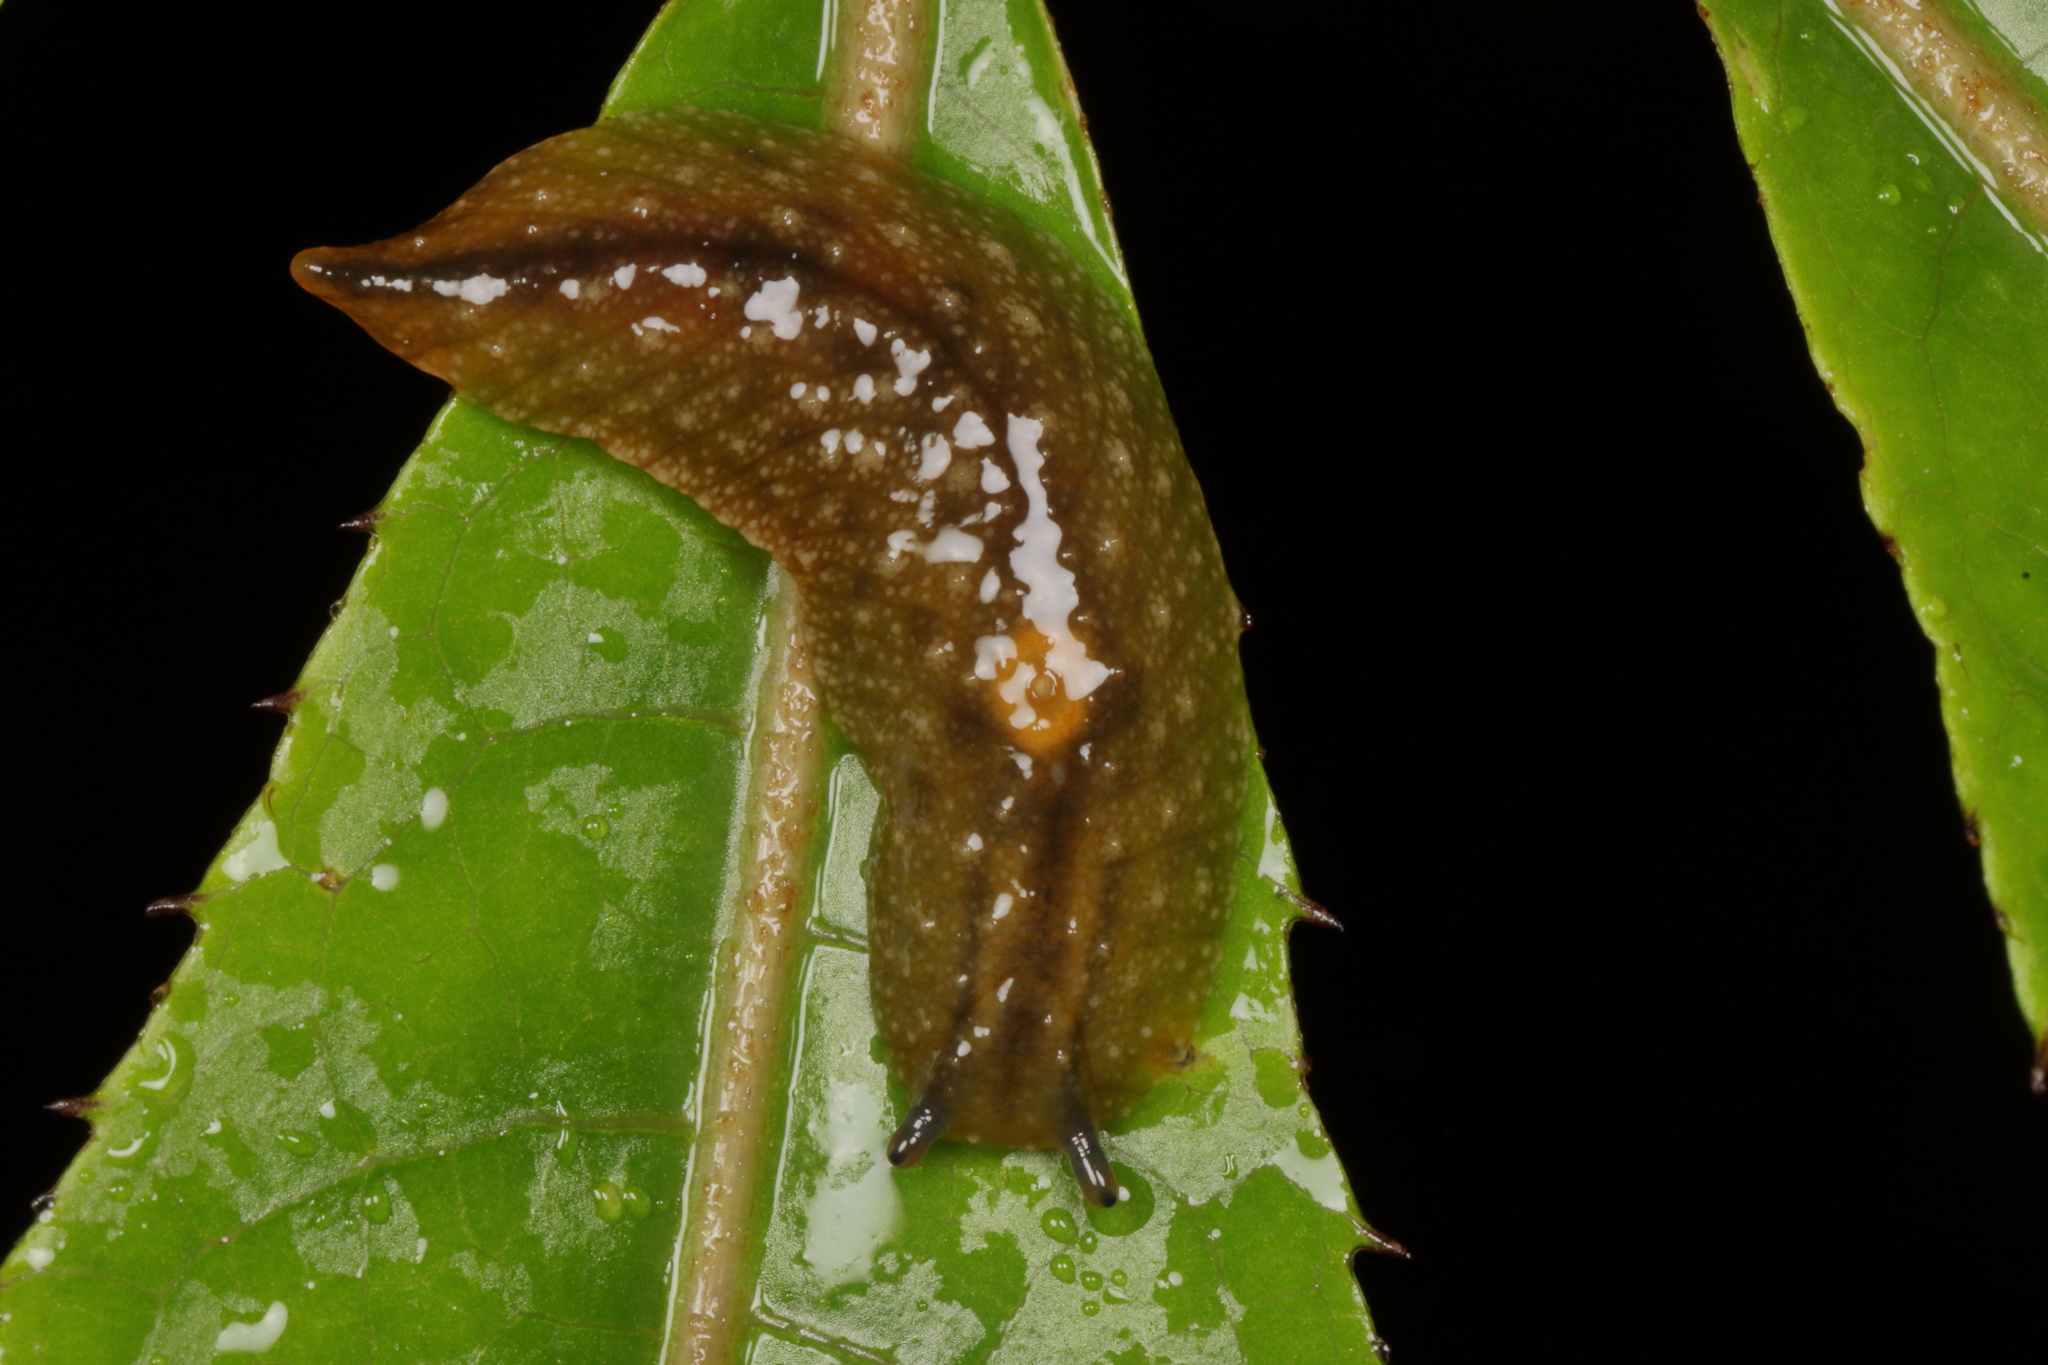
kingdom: Animalia
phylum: Mollusca
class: Gastropoda
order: Stylommatophora
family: Athoracophoridae
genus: Athoracophorus
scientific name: Athoracophorus bitentaculatus
